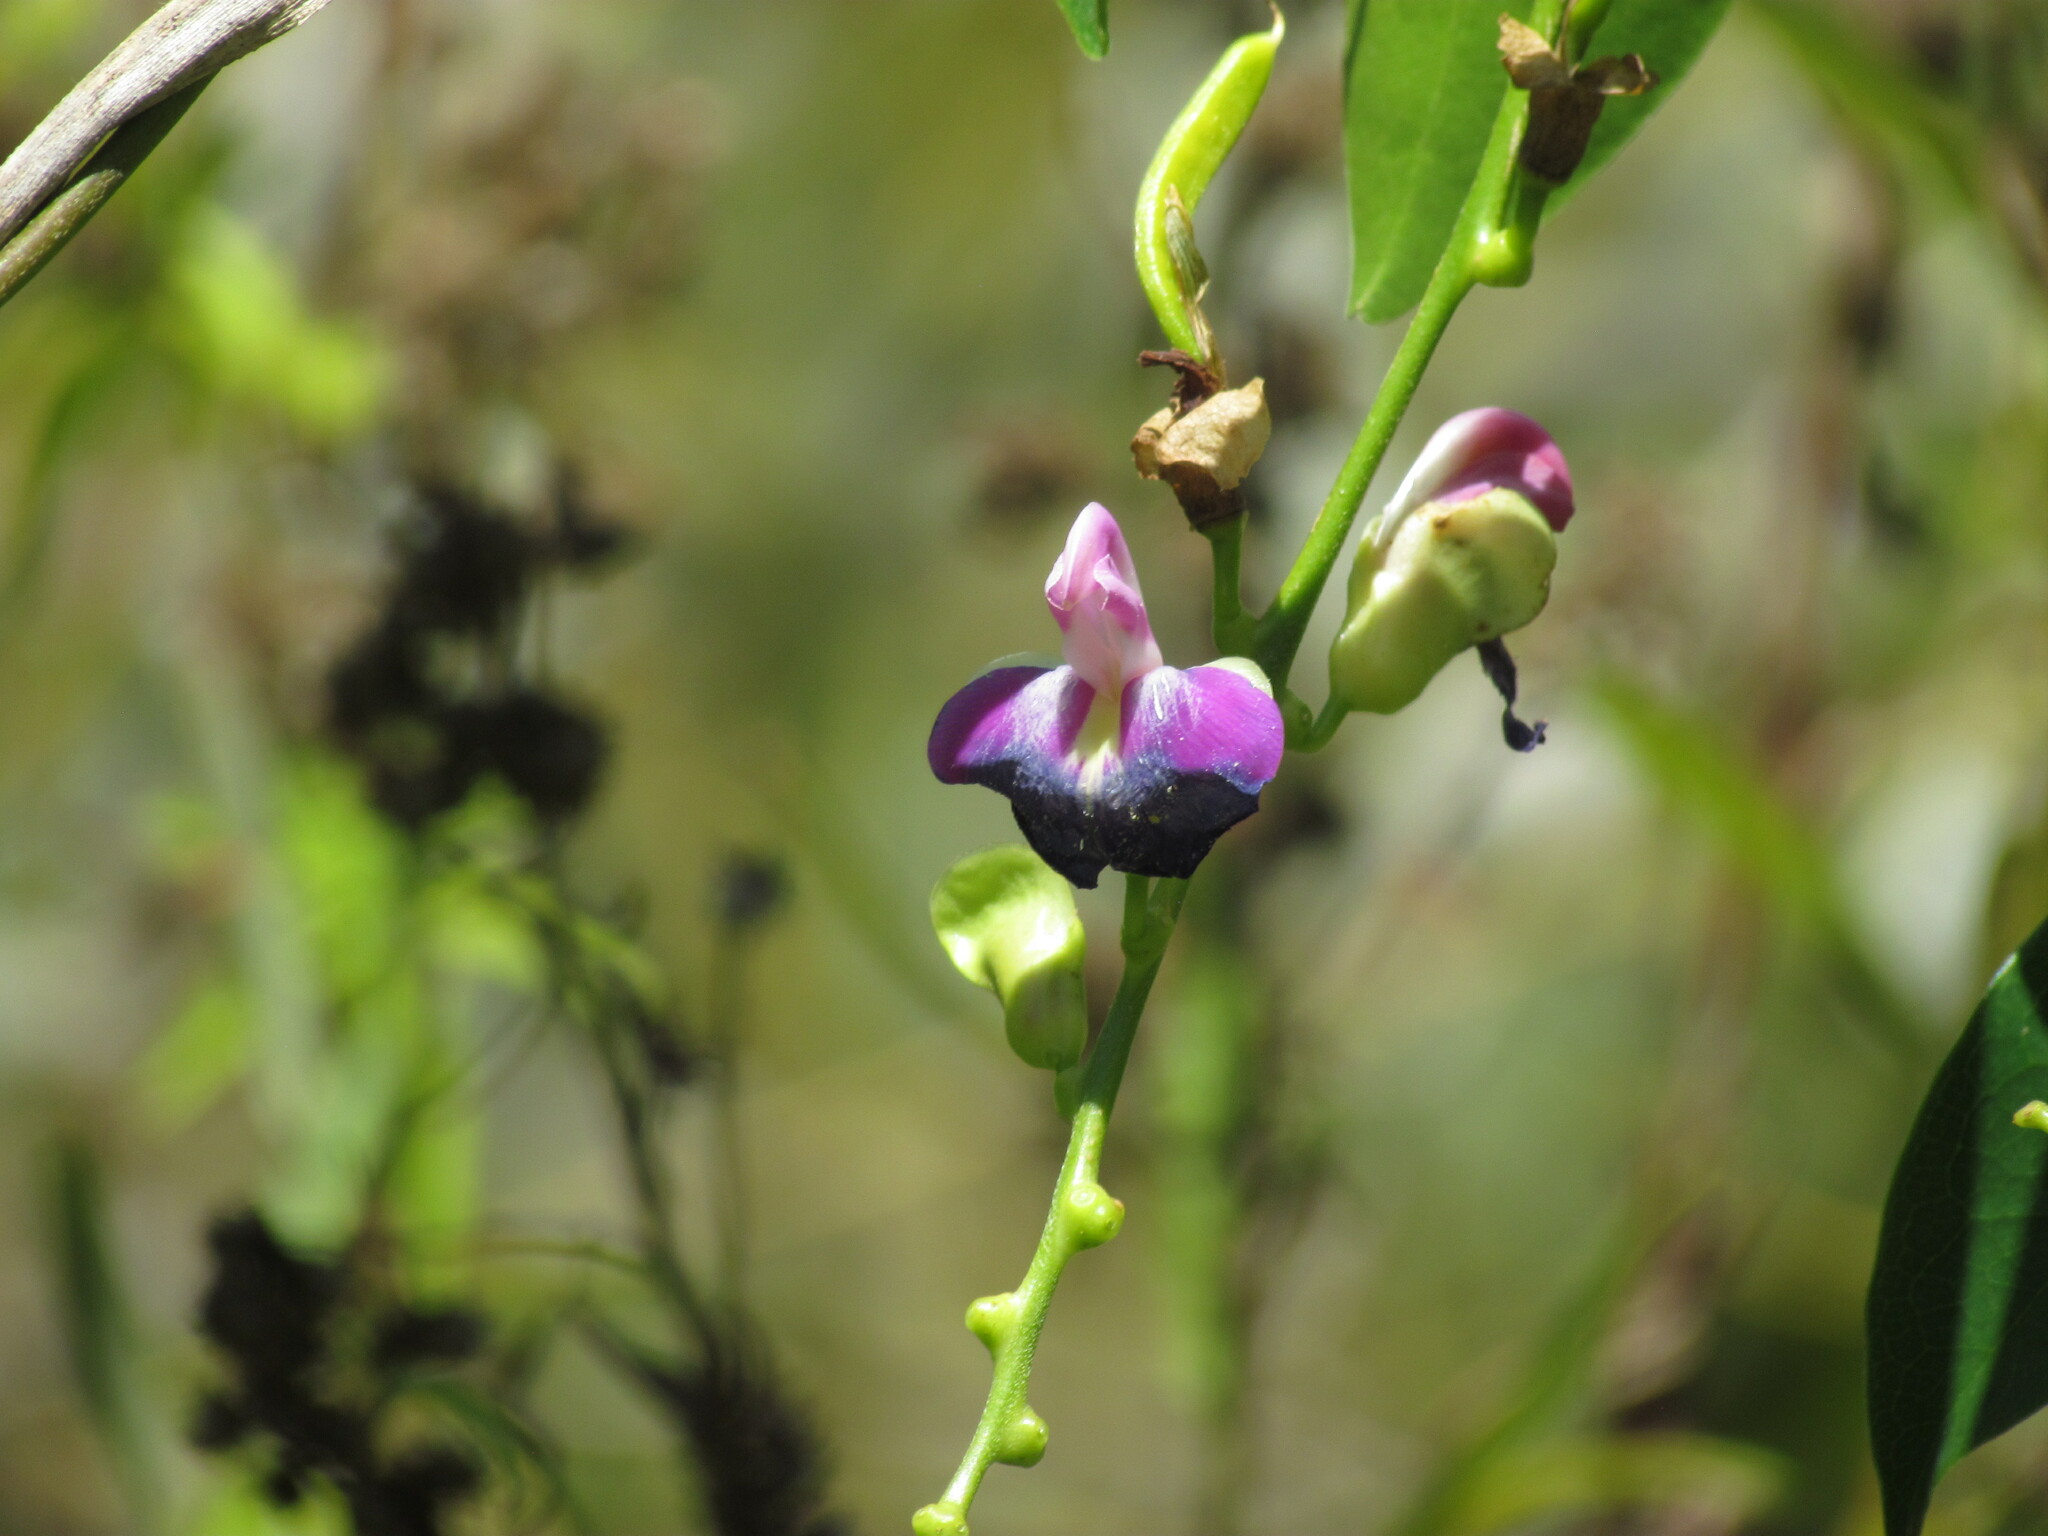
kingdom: Plantae
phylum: Tracheophyta
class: Magnoliopsida
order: Fabales
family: Fabaceae
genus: Canavalia
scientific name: Canavalia bonariensis
